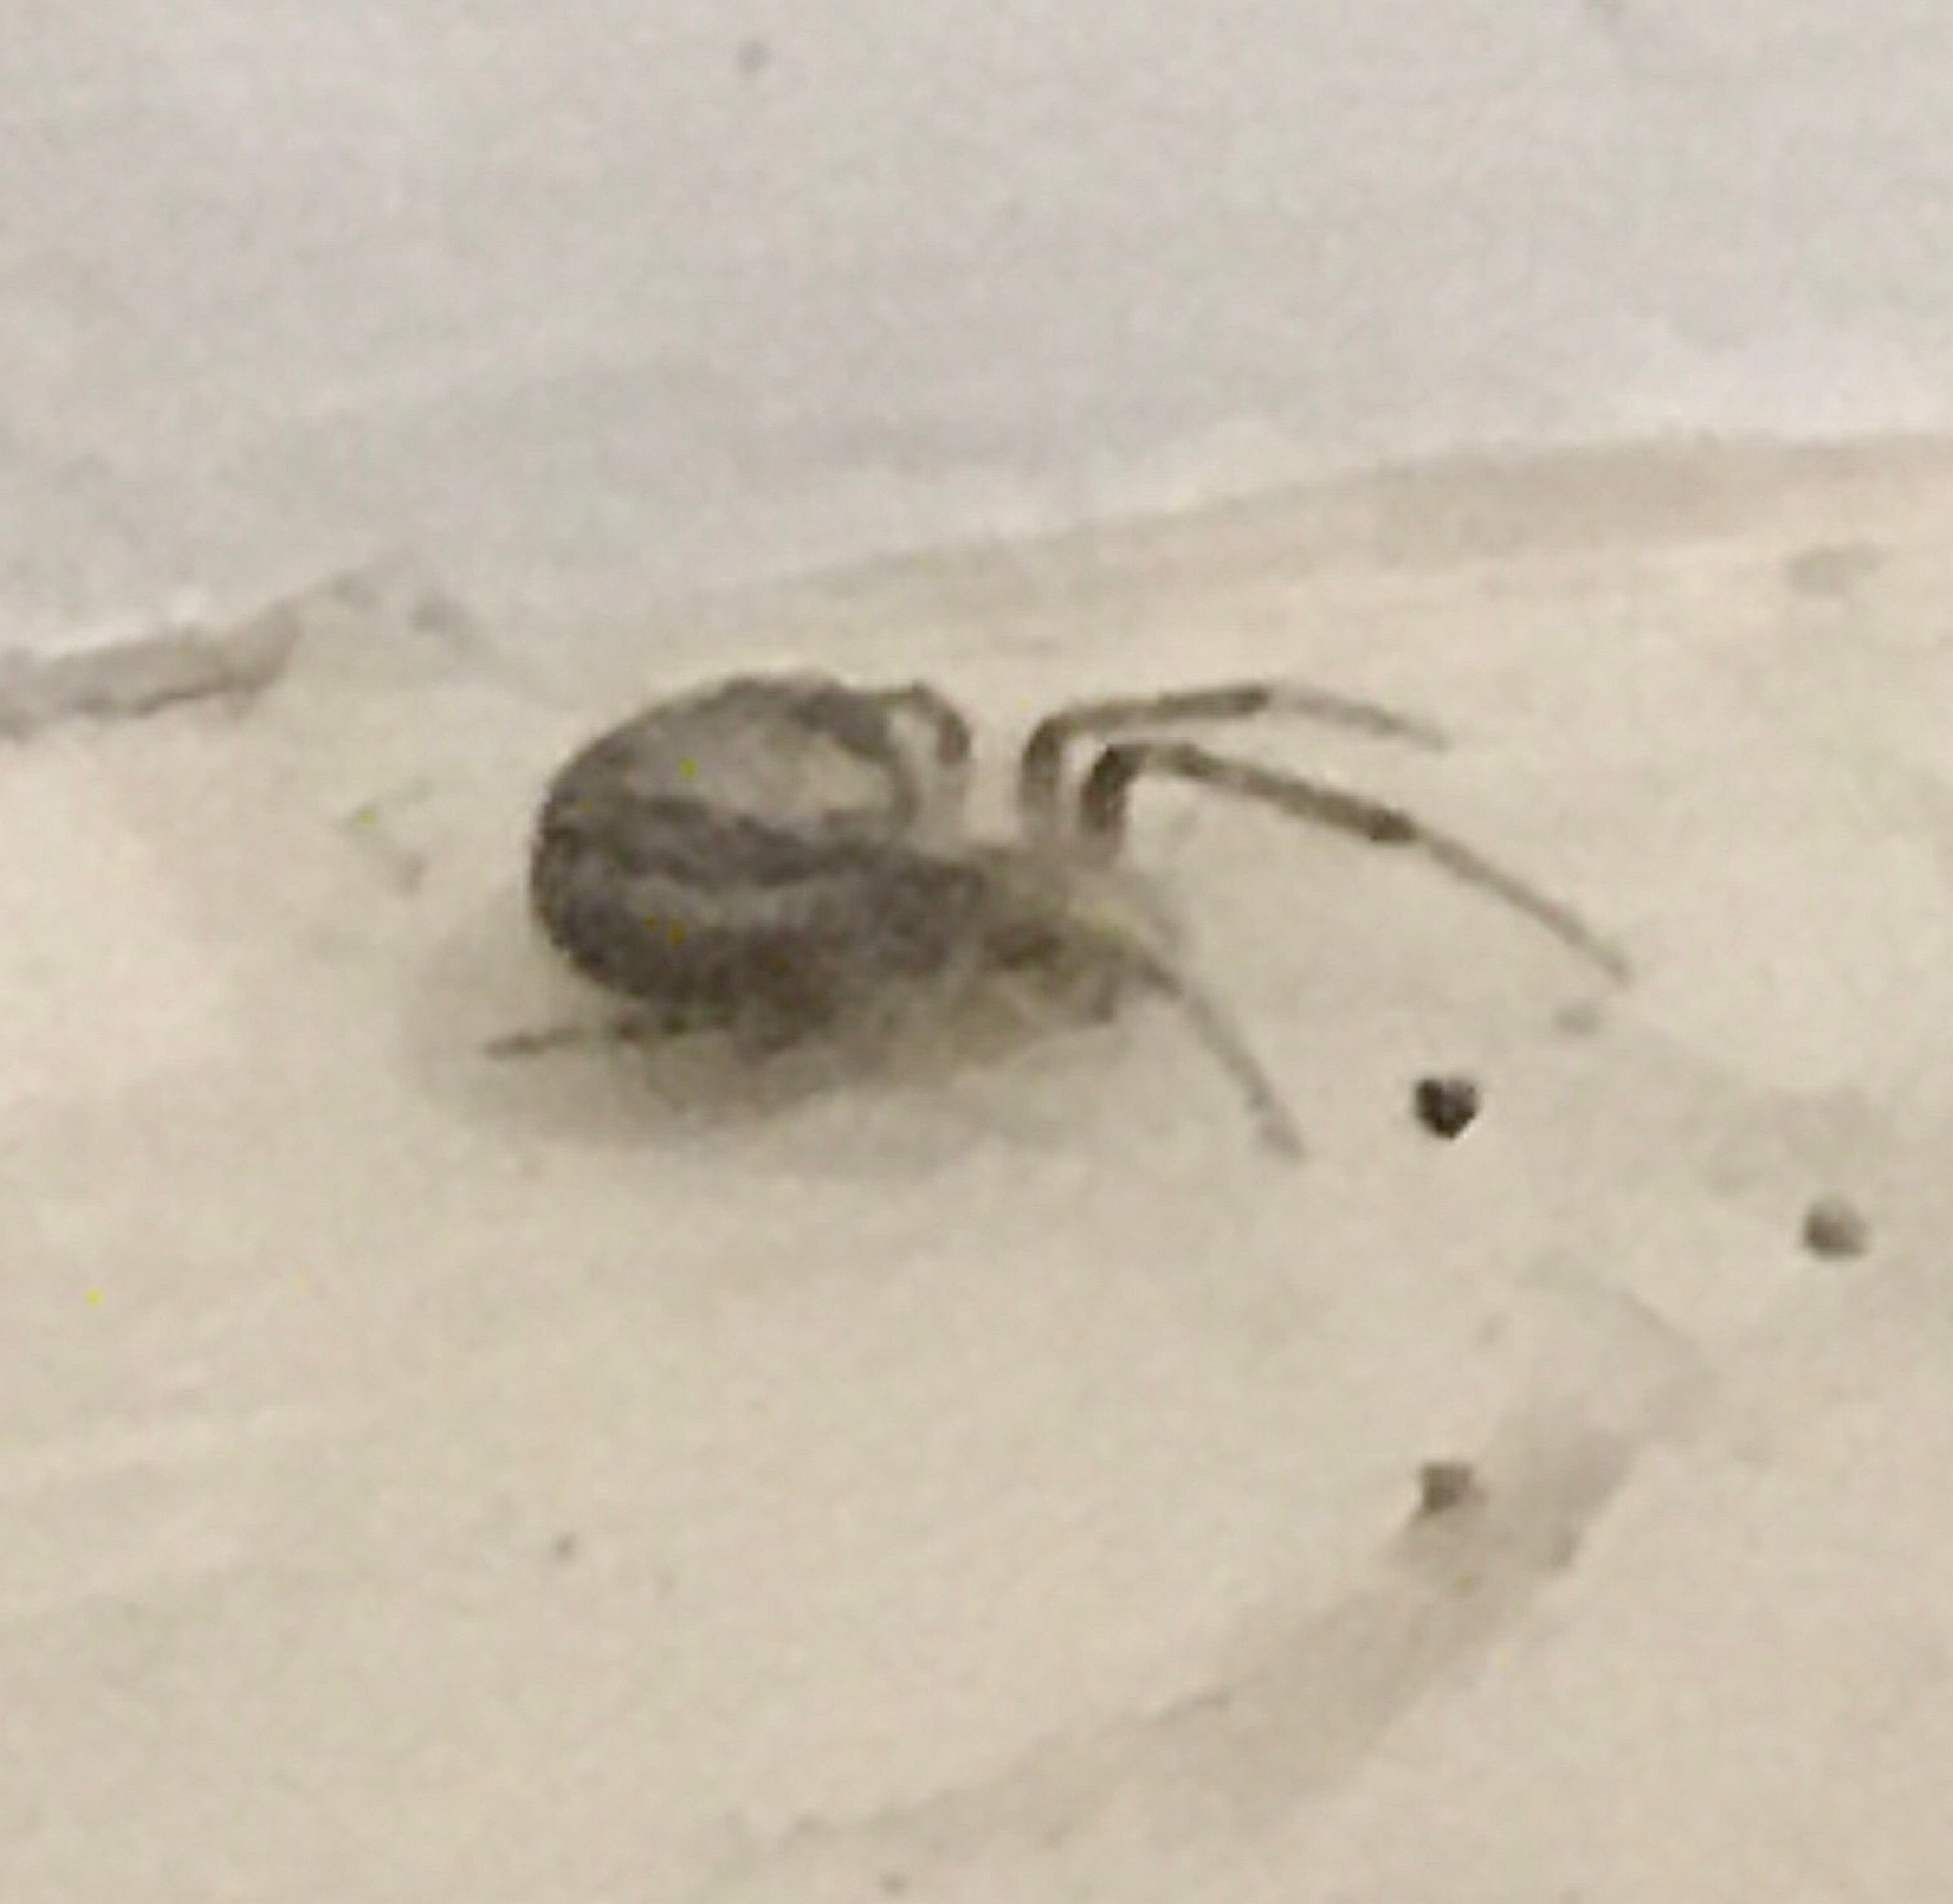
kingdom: Animalia
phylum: Arthropoda
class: Arachnida
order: Araneae
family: Araneidae
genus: Zygiella
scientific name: Zygiella x-notata
